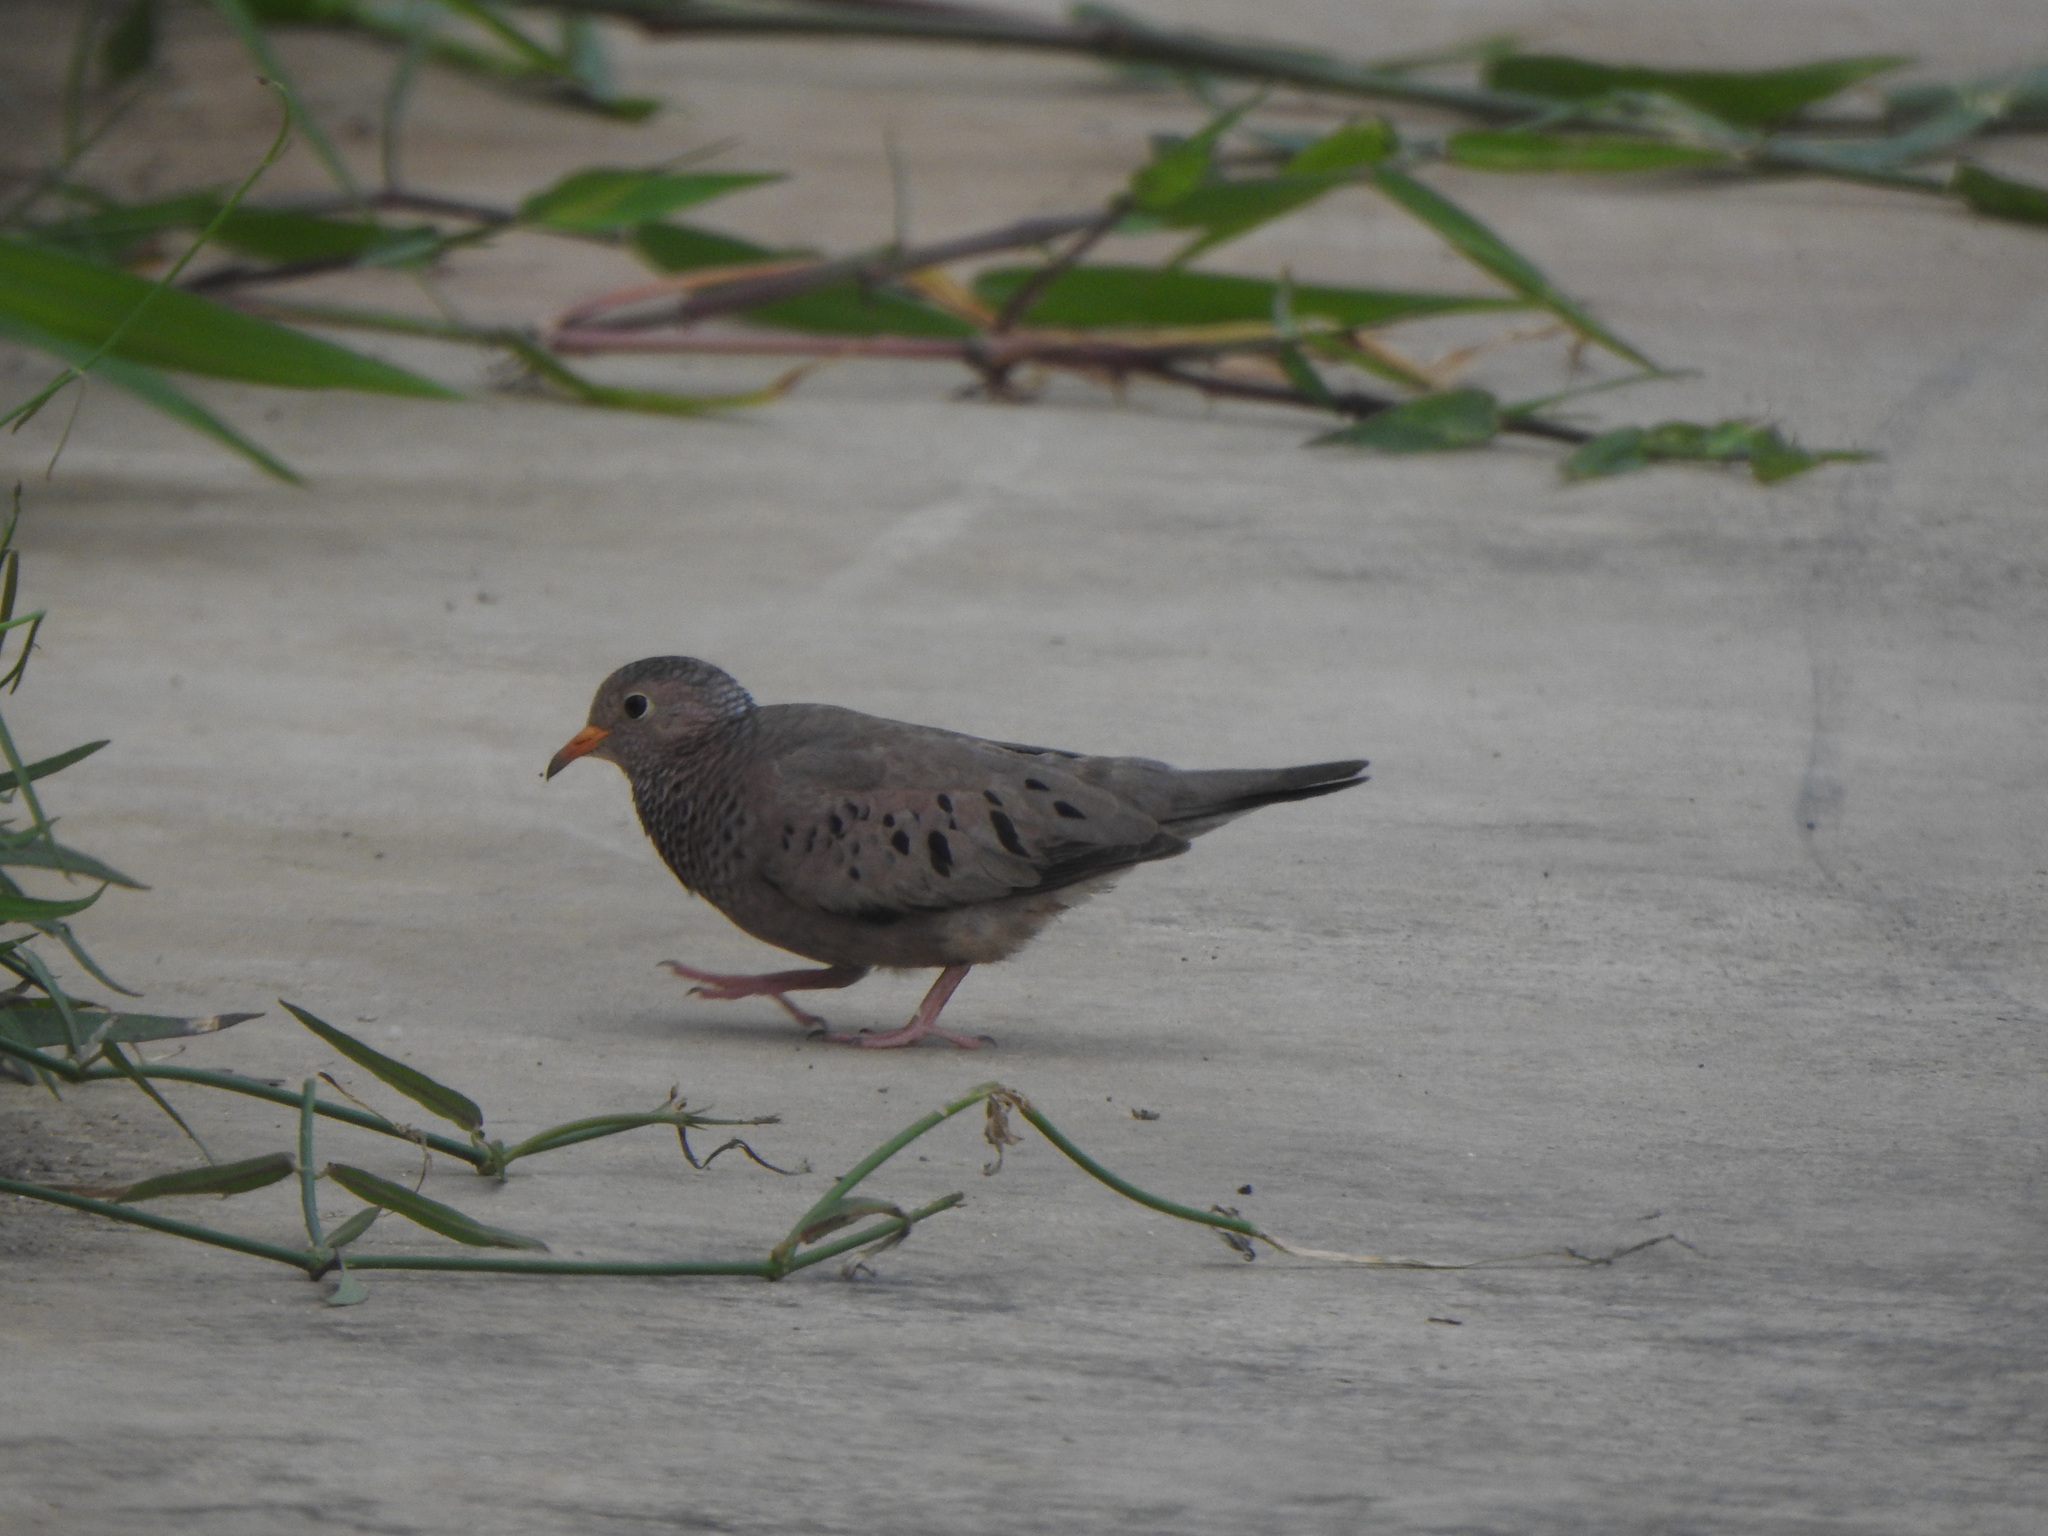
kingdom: Animalia
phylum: Chordata
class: Aves
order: Columbiformes
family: Columbidae
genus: Columbina
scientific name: Columbina passerina
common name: Common ground-dove
